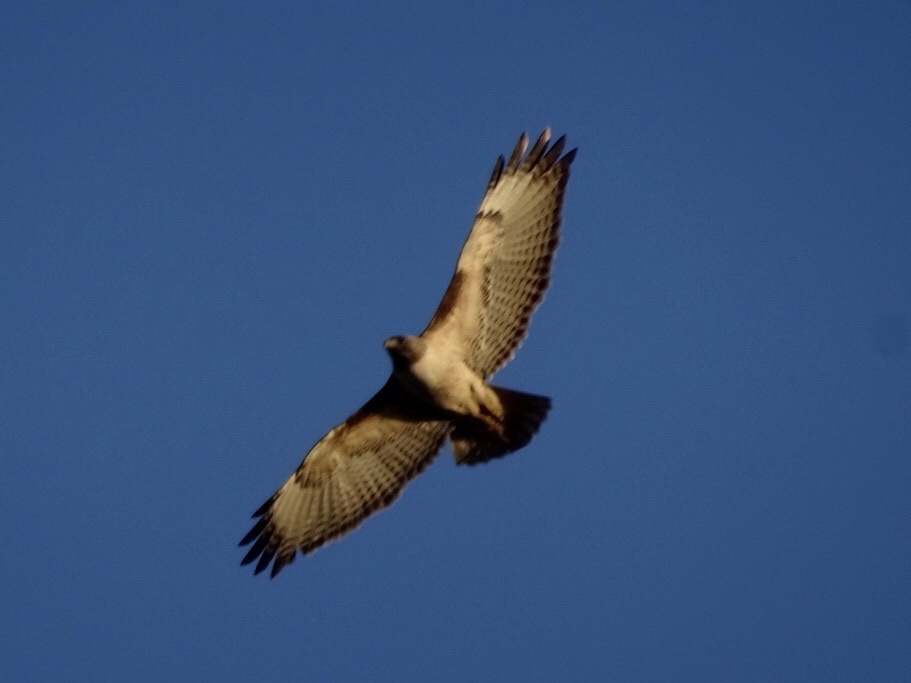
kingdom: Animalia
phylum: Chordata
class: Aves
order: Accipitriformes
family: Accipitridae
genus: Buteo
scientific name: Buteo jamaicensis
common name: Red-tailed hawk
